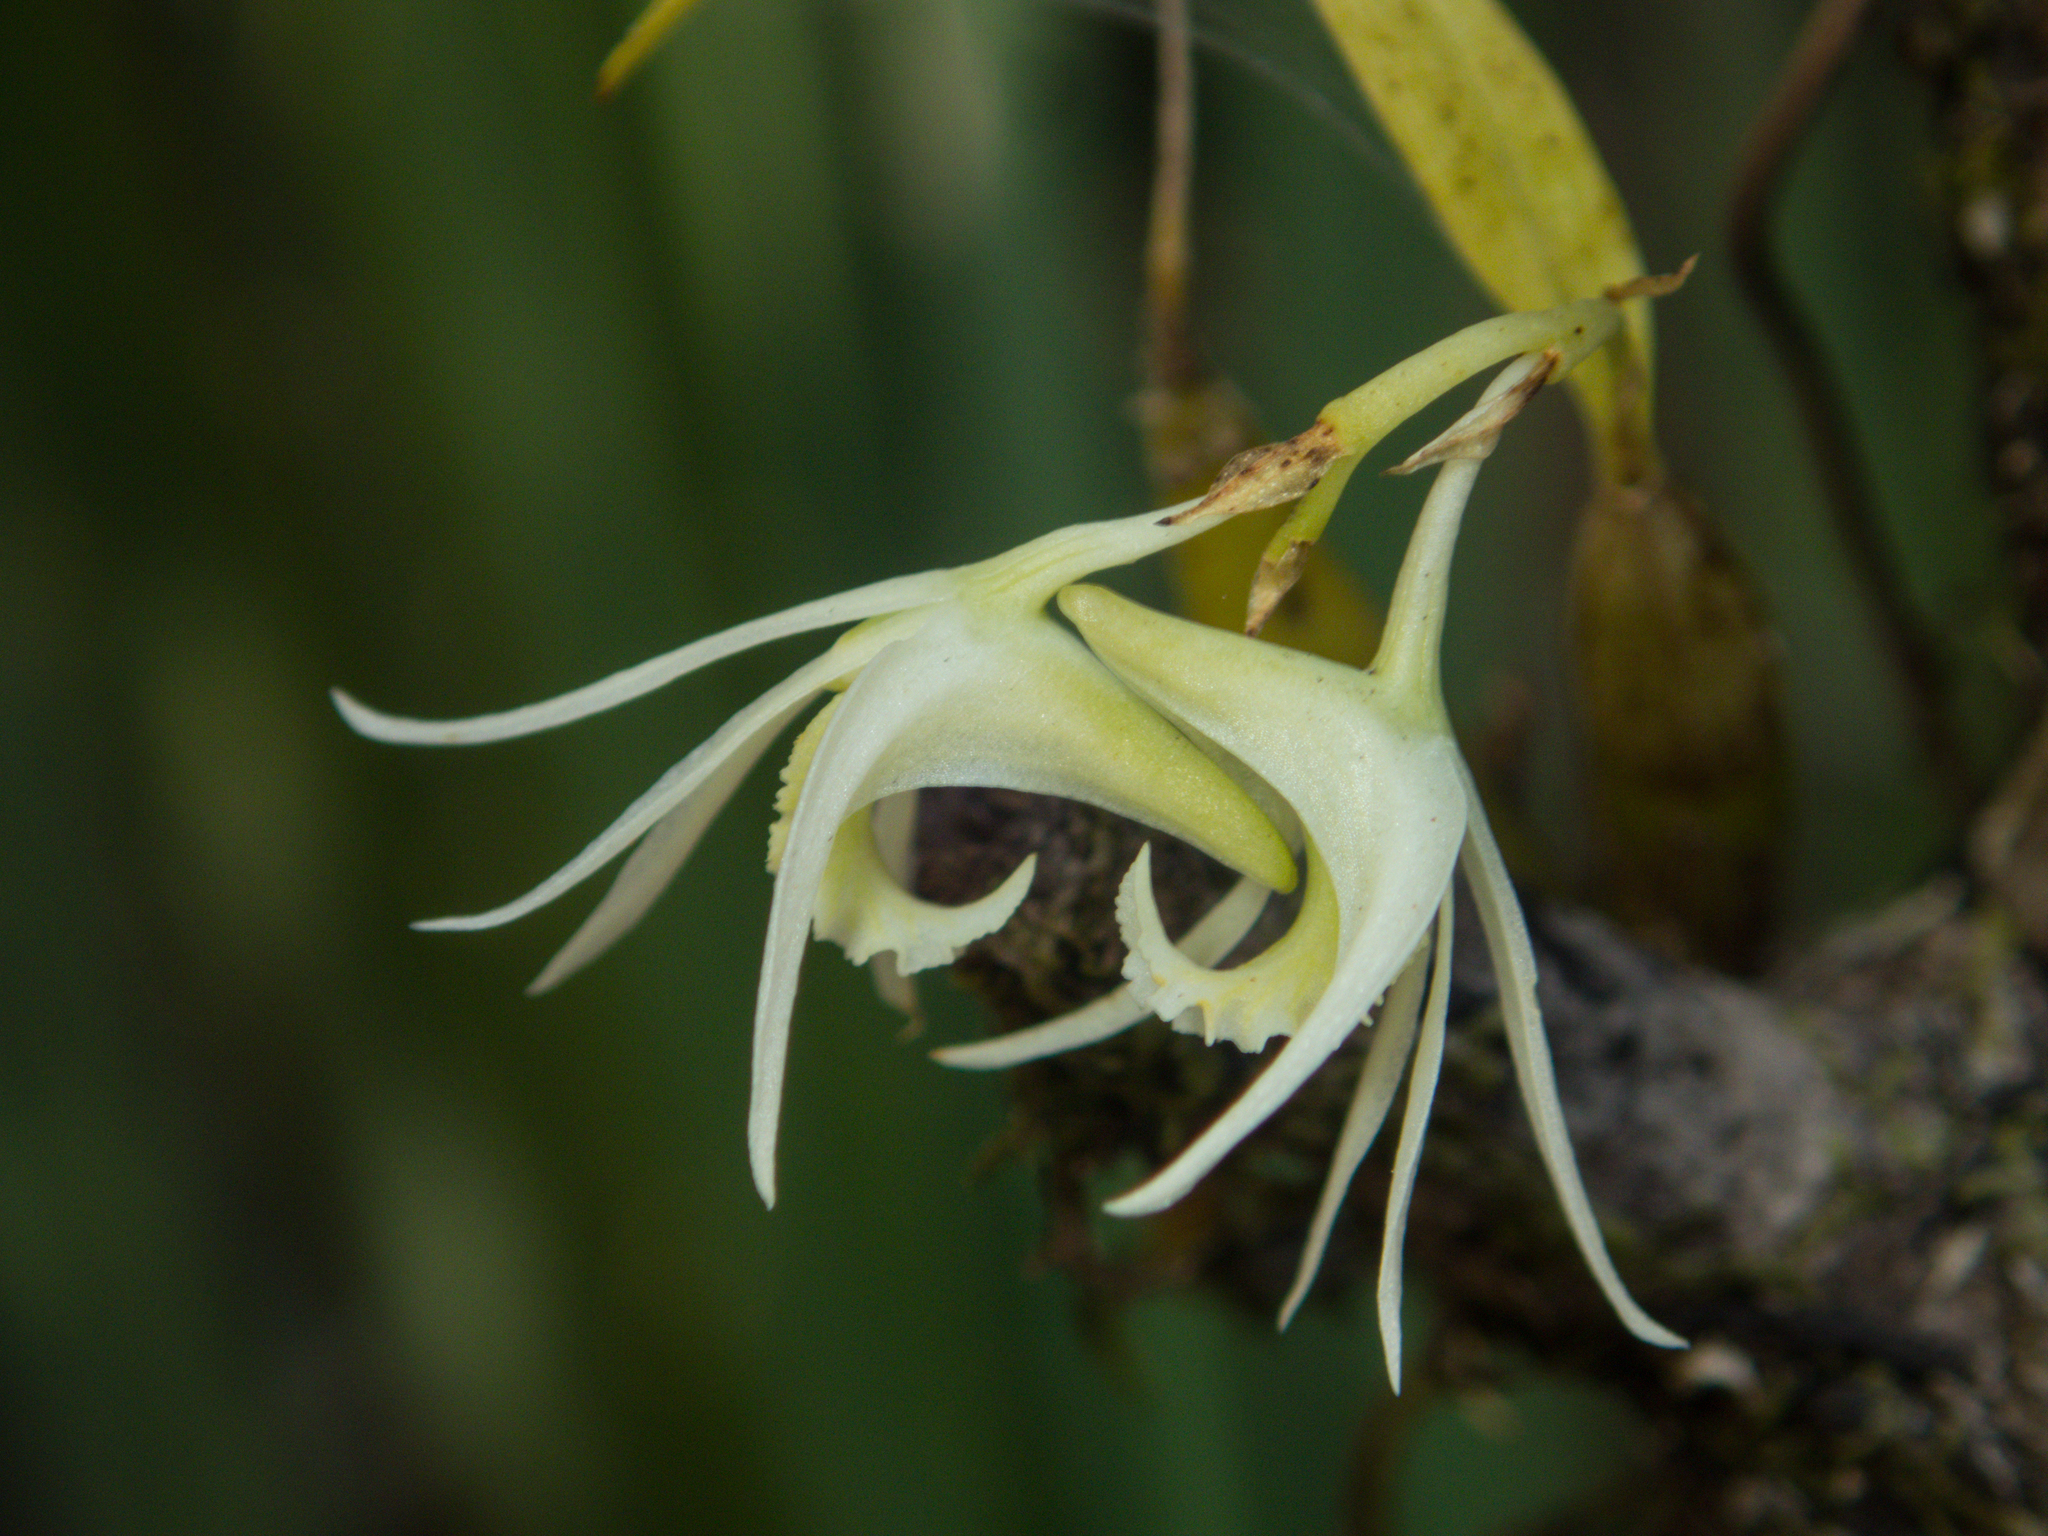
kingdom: Plantae
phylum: Tracheophyta
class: Liliopsida
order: Asparagales
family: Orchidaceae
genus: Dendrobium
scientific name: Dendrobium kratense
